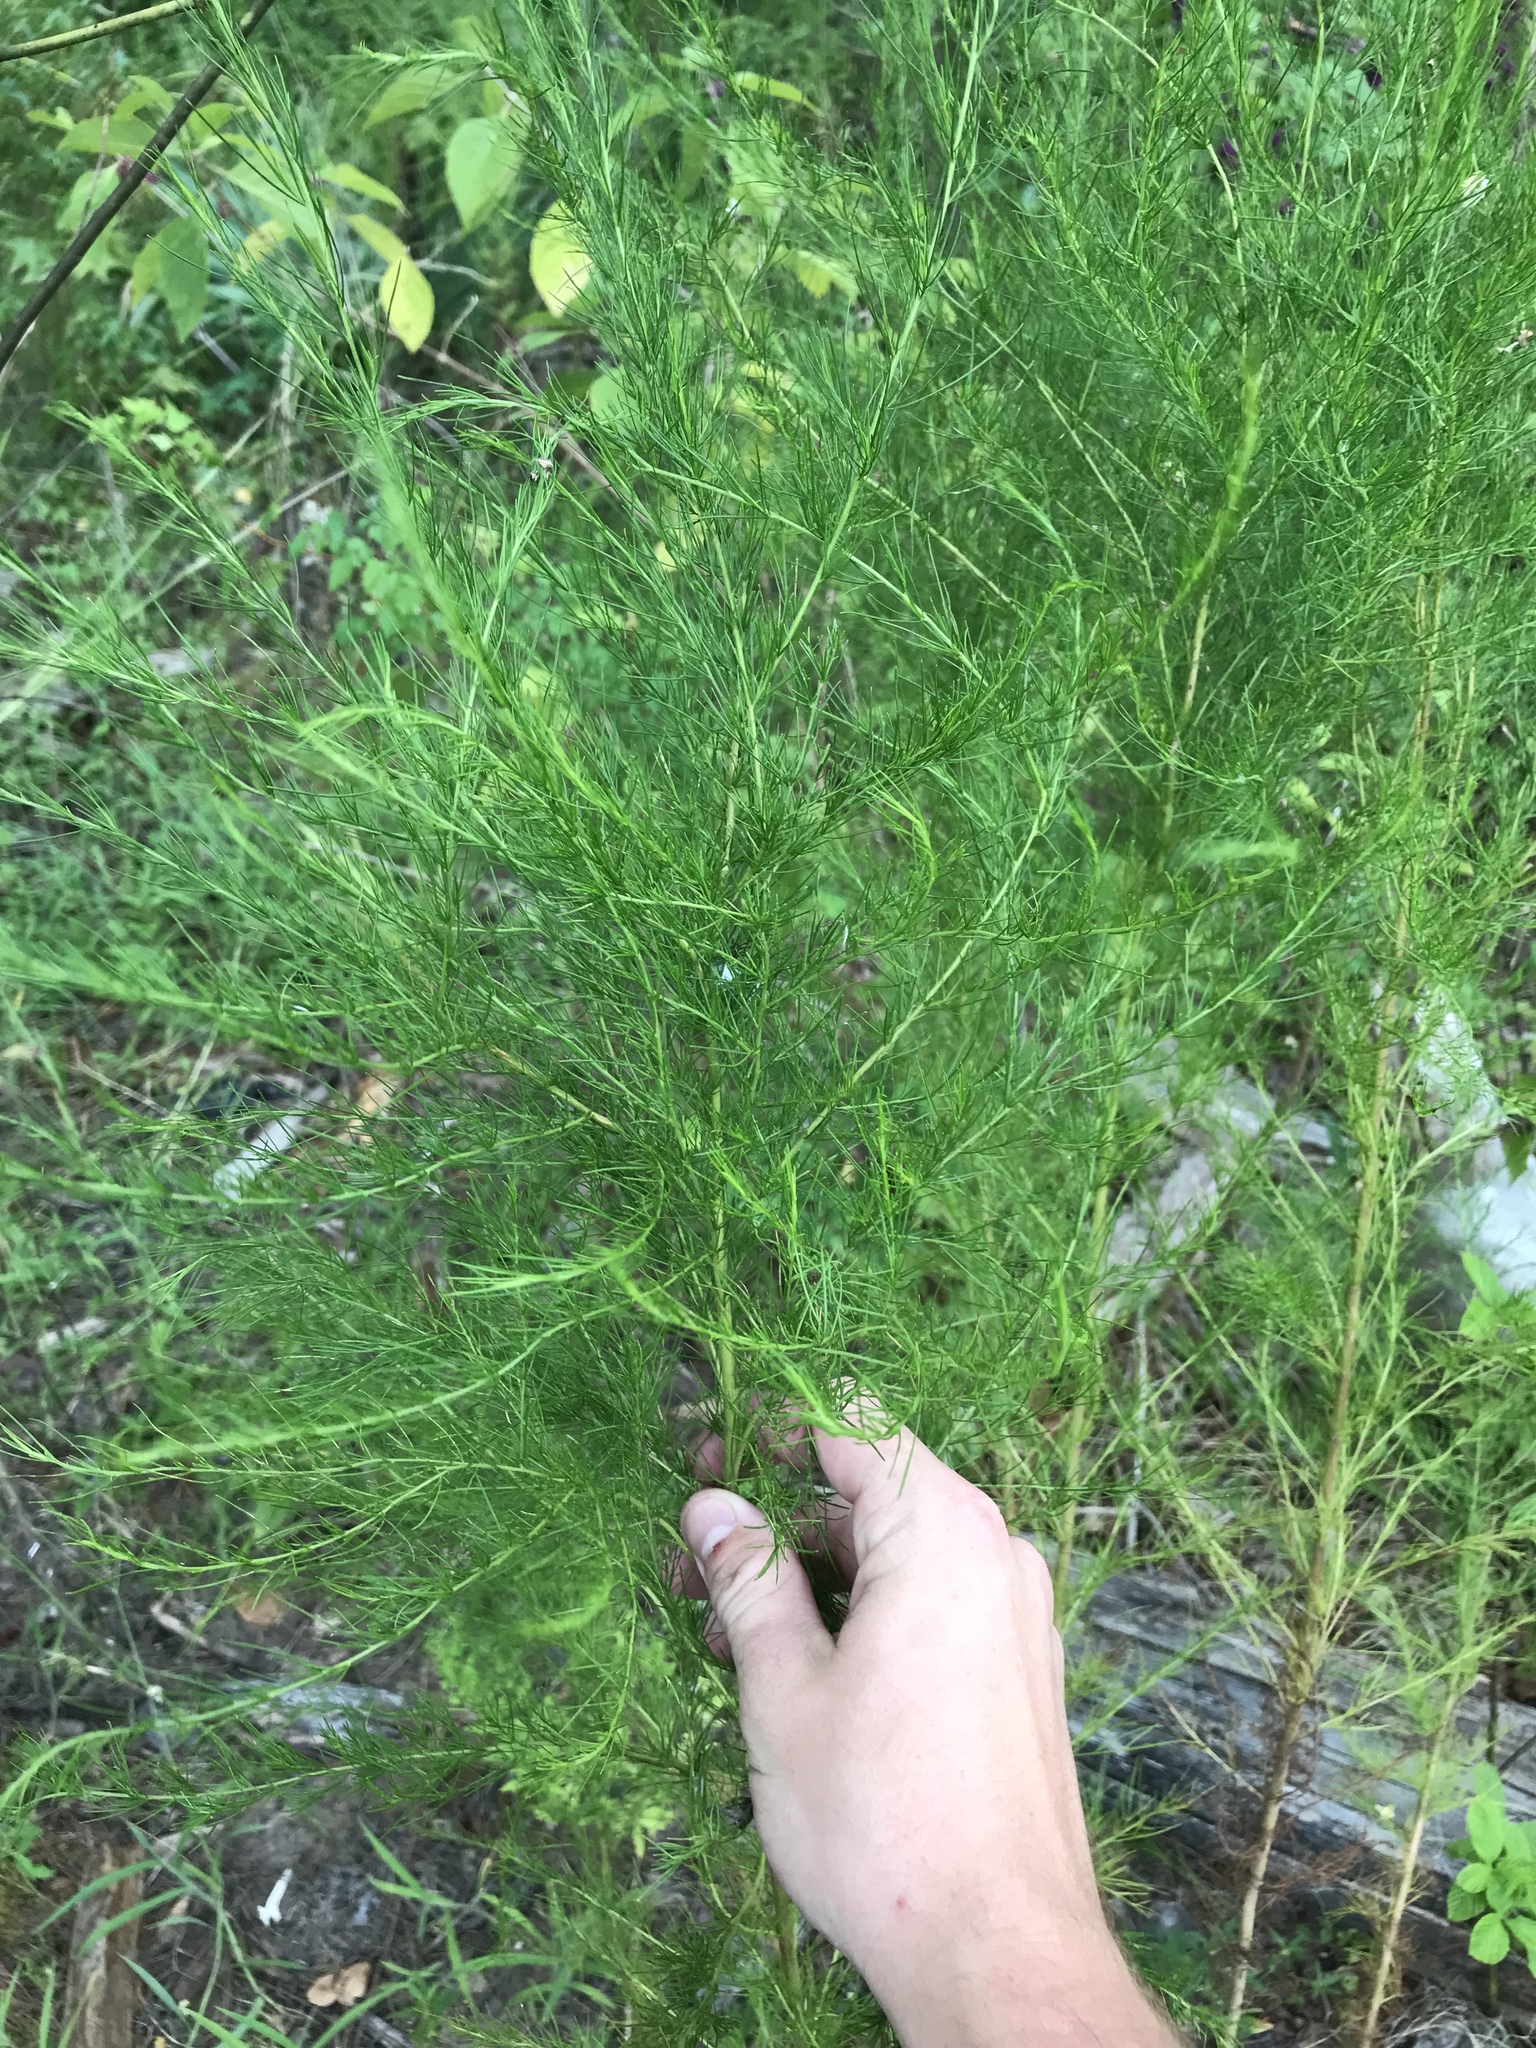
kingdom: Plantae
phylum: Tracheophyta
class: Magnoliopsida
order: Asterales
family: Asteraceae
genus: Eupatorium
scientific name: Eupatorium capillifolium
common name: Dog-fennel
